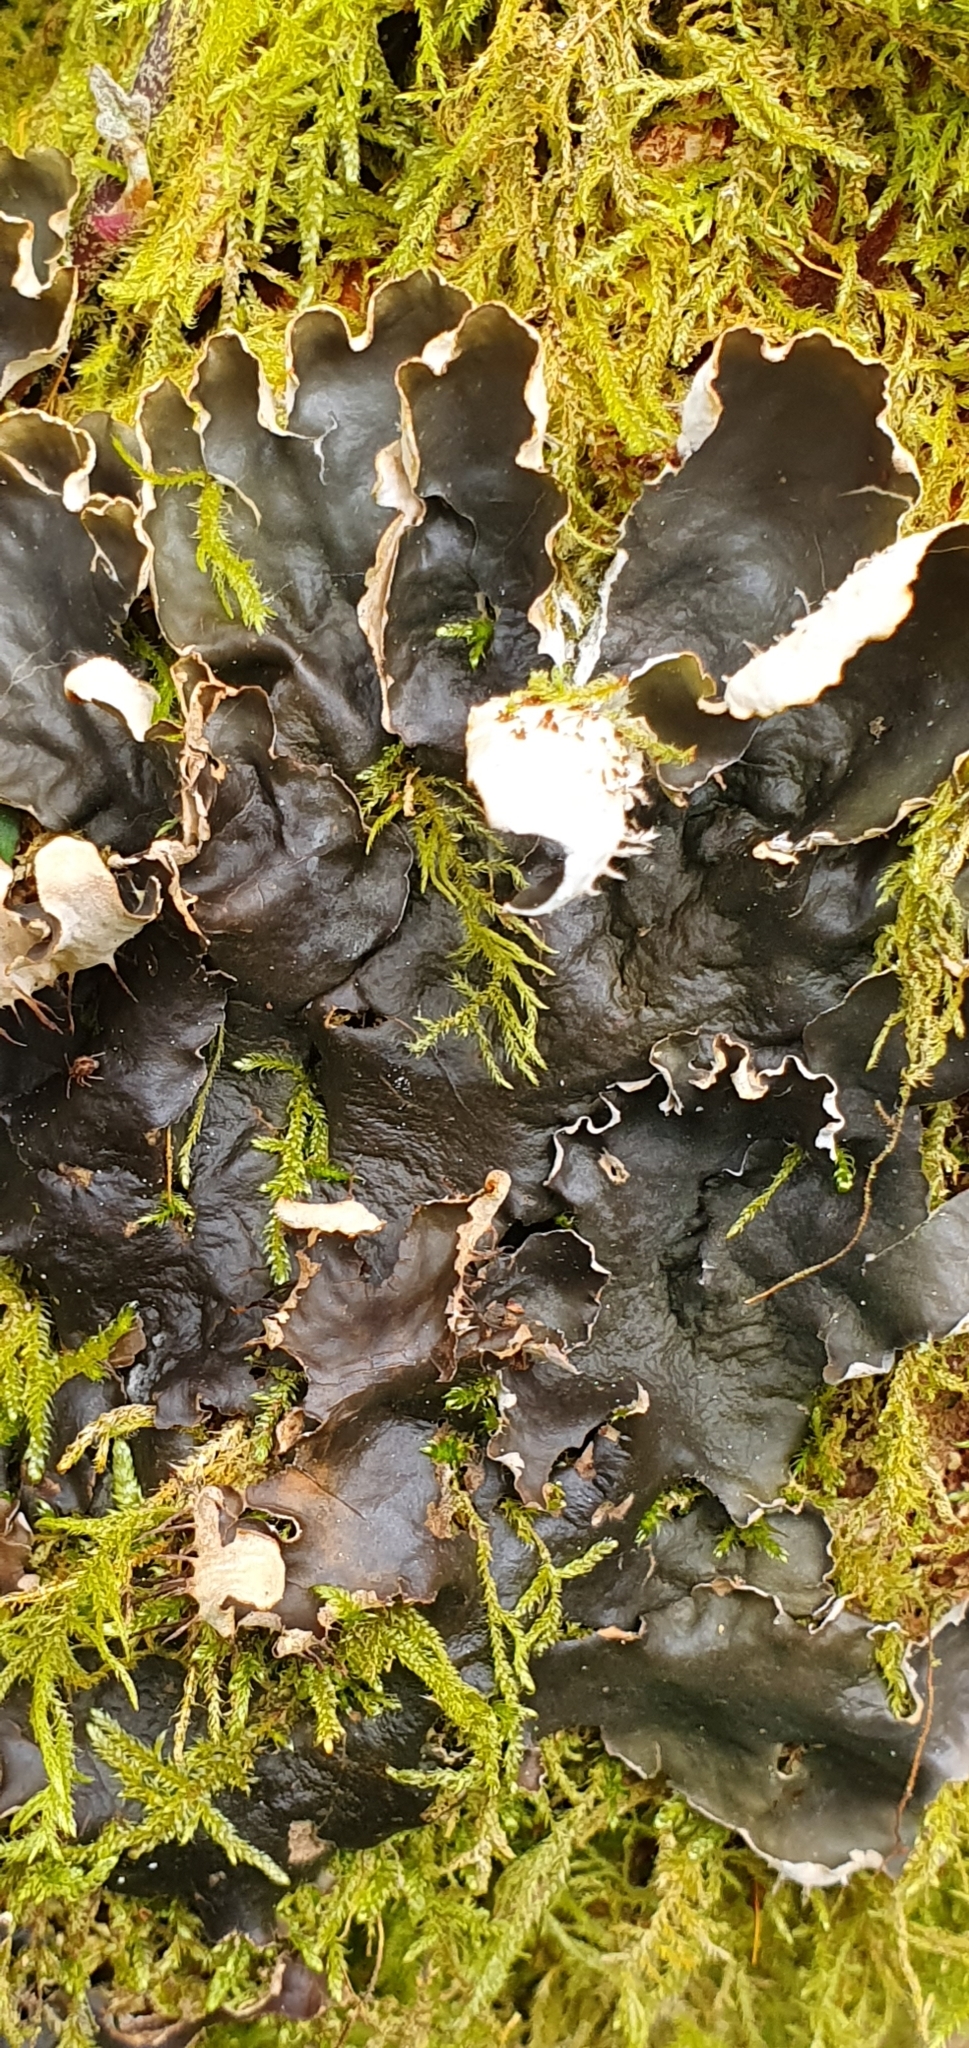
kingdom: Fungi
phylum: Ascomycota
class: Lecanoromycetes
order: Peltigerales
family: Peltigeraceae
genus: Peltigera
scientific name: Peltigera hymenina
